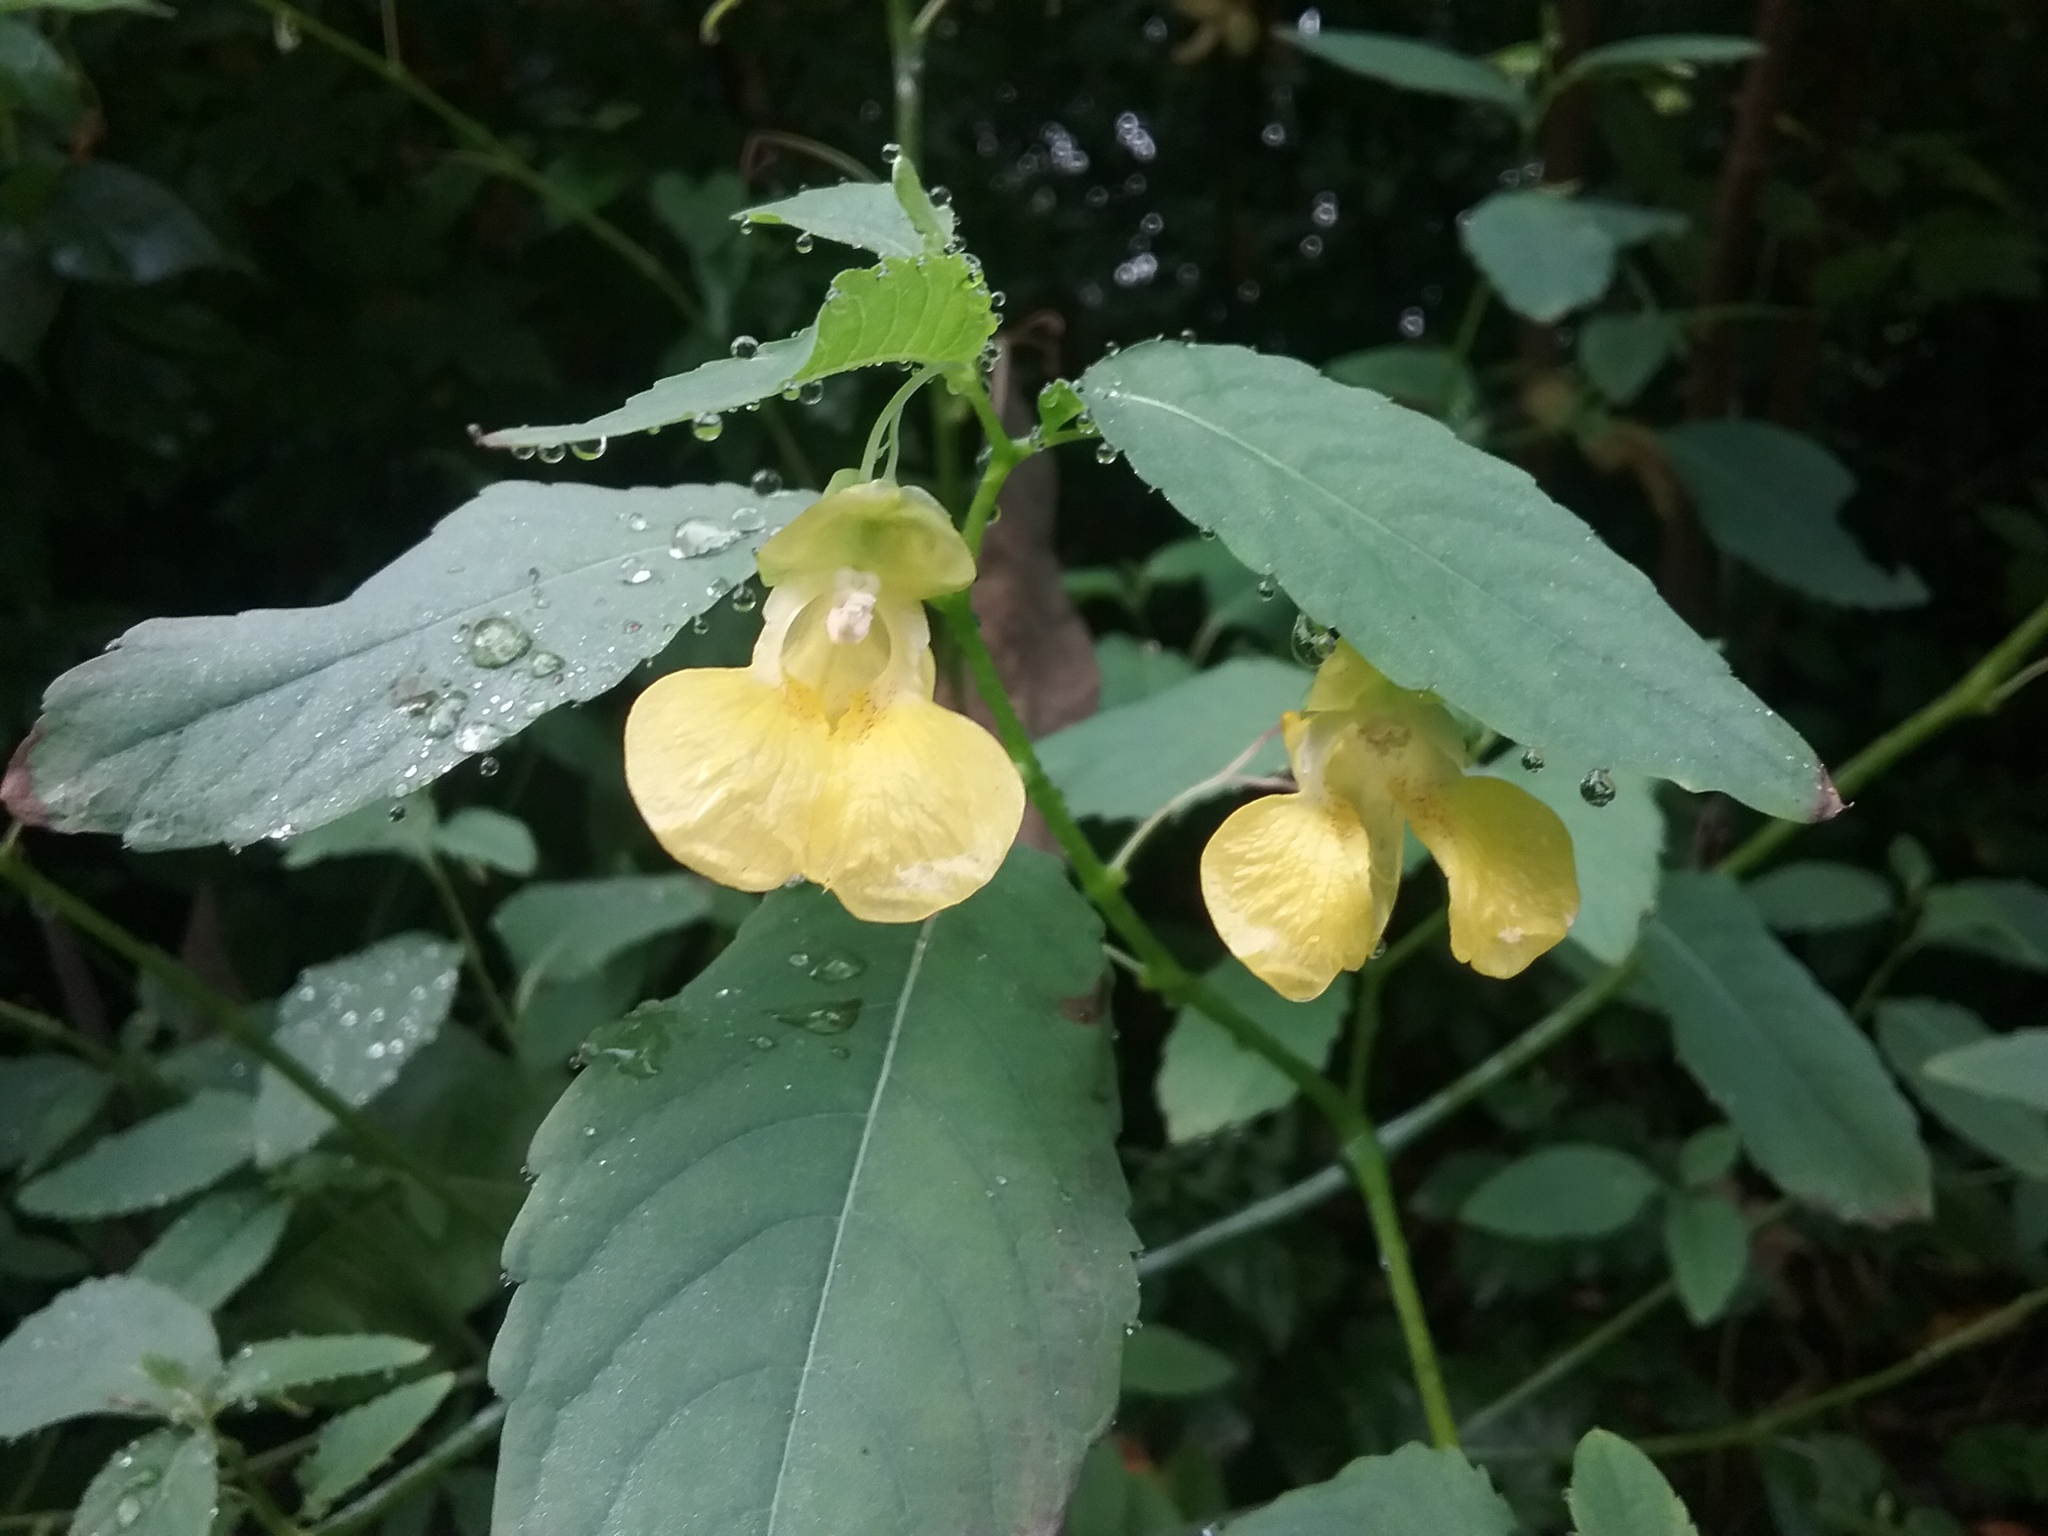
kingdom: Plantae
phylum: Tracheophyta
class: Magnoliopsida
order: Ericales
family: Balsaminaceae
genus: Impatiens
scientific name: Impatiens pallida
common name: Pale snapweed
